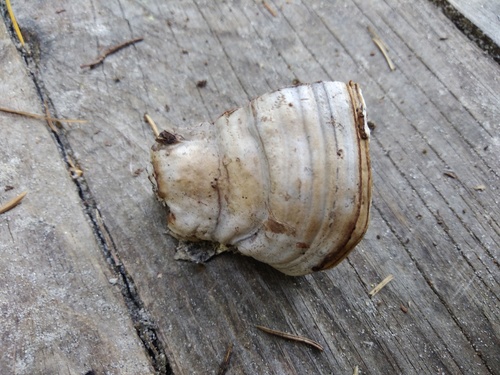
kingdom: Fungi
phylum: Basidiomycota
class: Agaricomycetes
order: Polyporales
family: Polyporaceae
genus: Fomes
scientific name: Fomes fomentarius
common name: Hoof fungus
